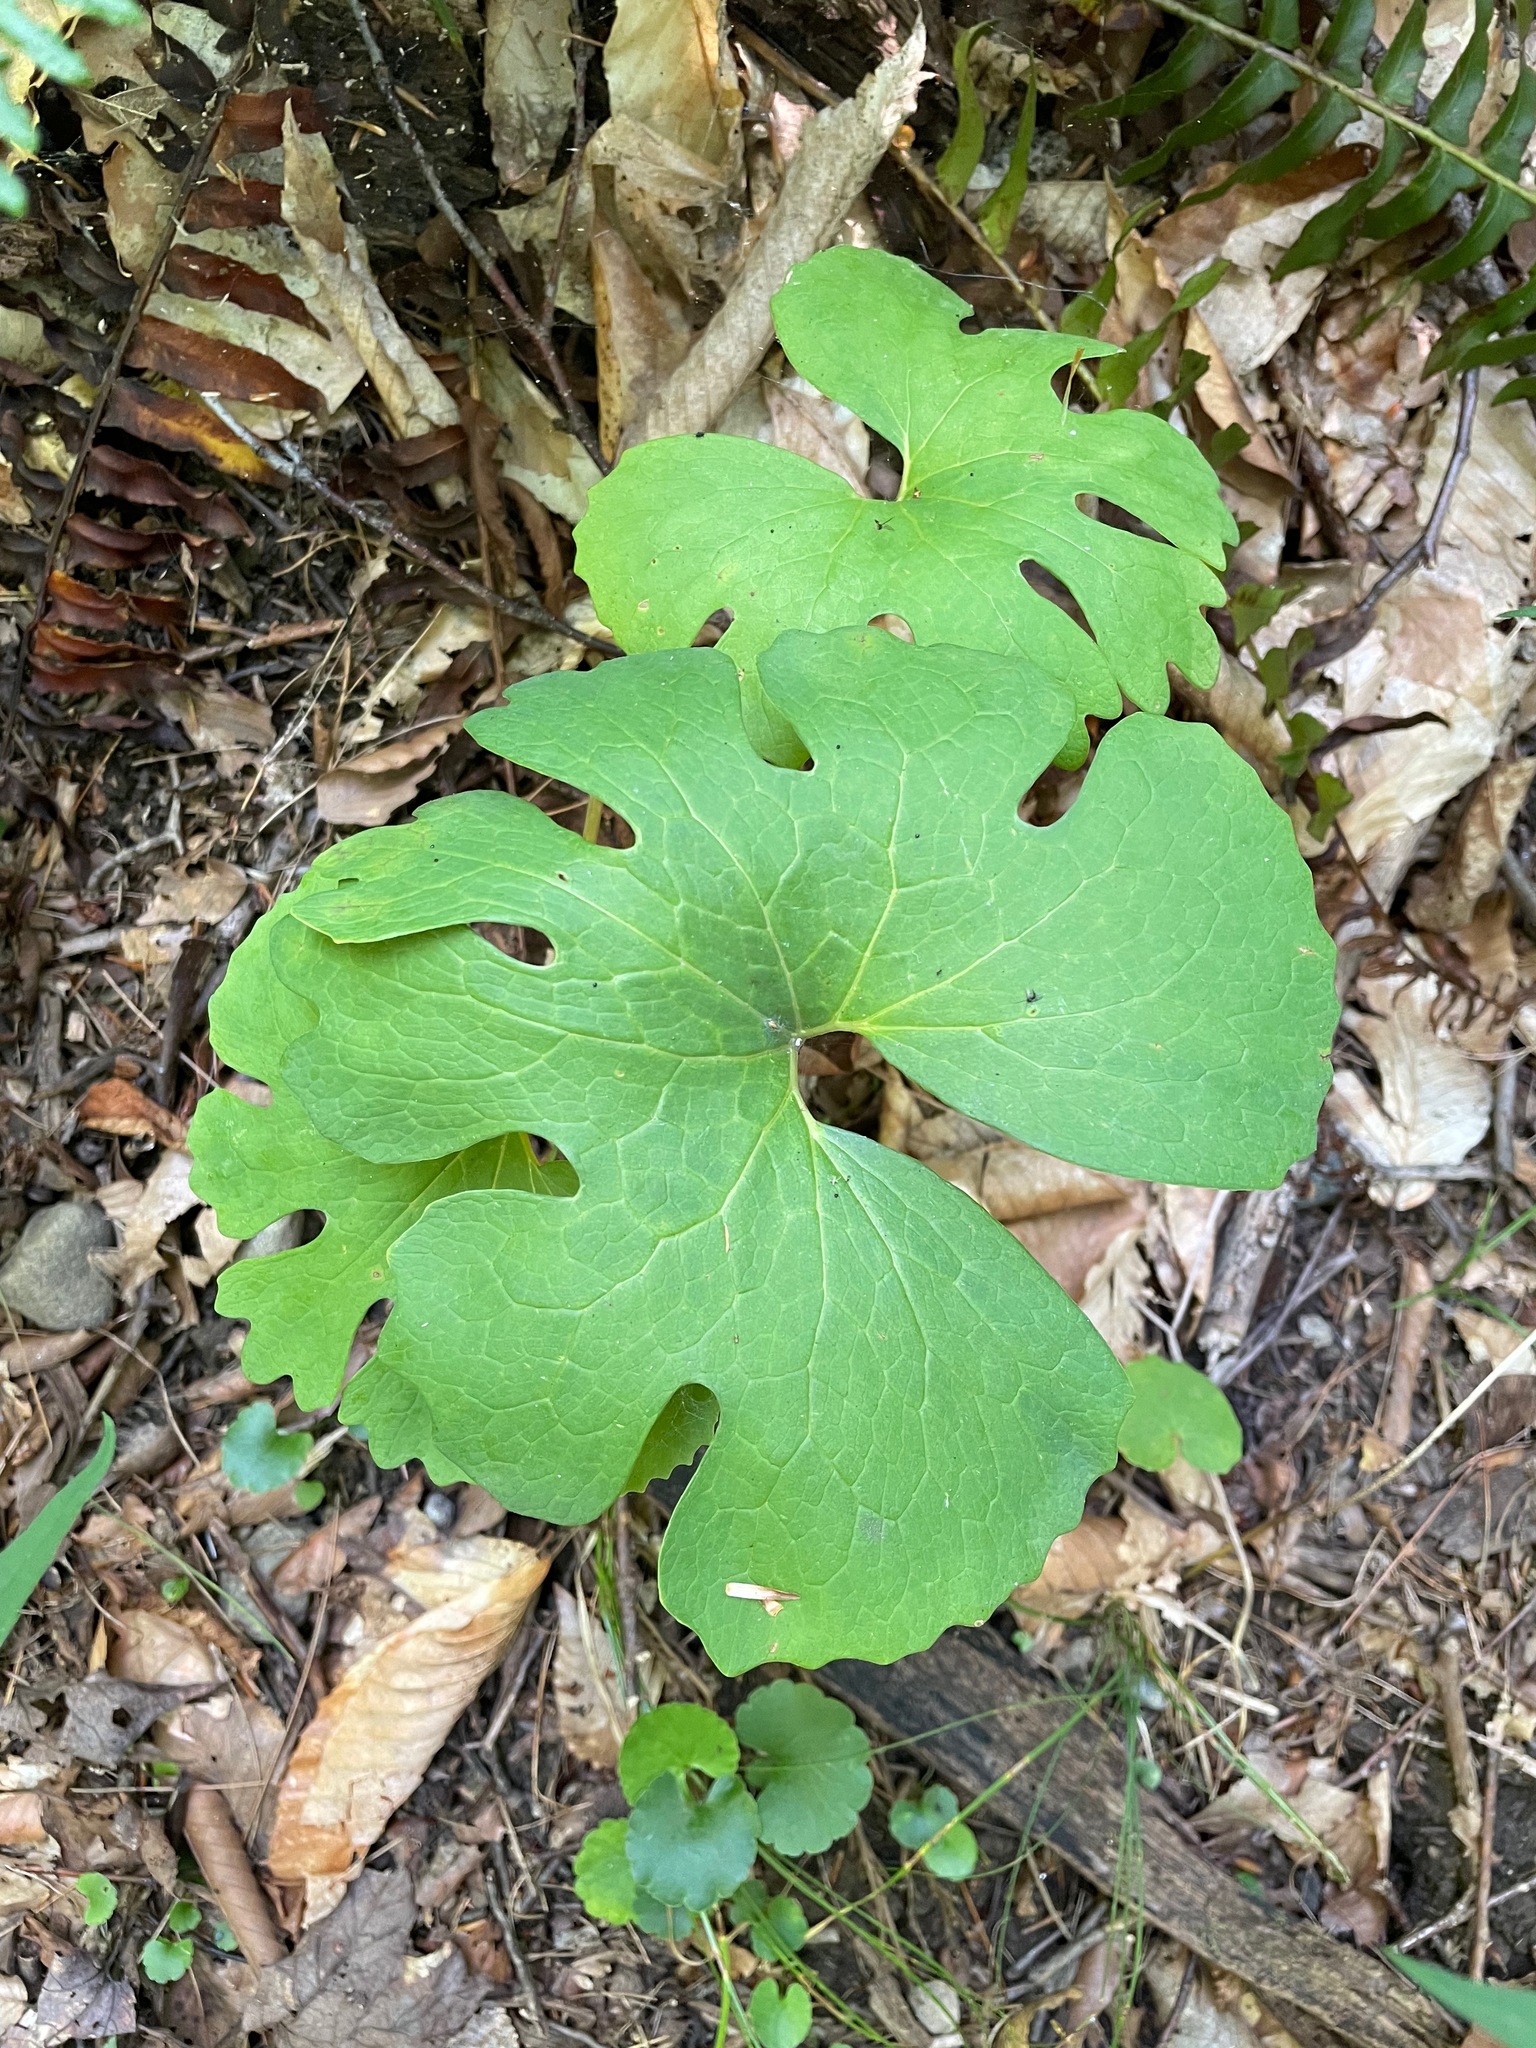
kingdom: Plantae
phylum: Tracheophyta
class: Magnoliopsida
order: Ranunculales
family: Papaveraceae
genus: Sanguinaria
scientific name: Sanguinaria canadensis
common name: Bloodroot
